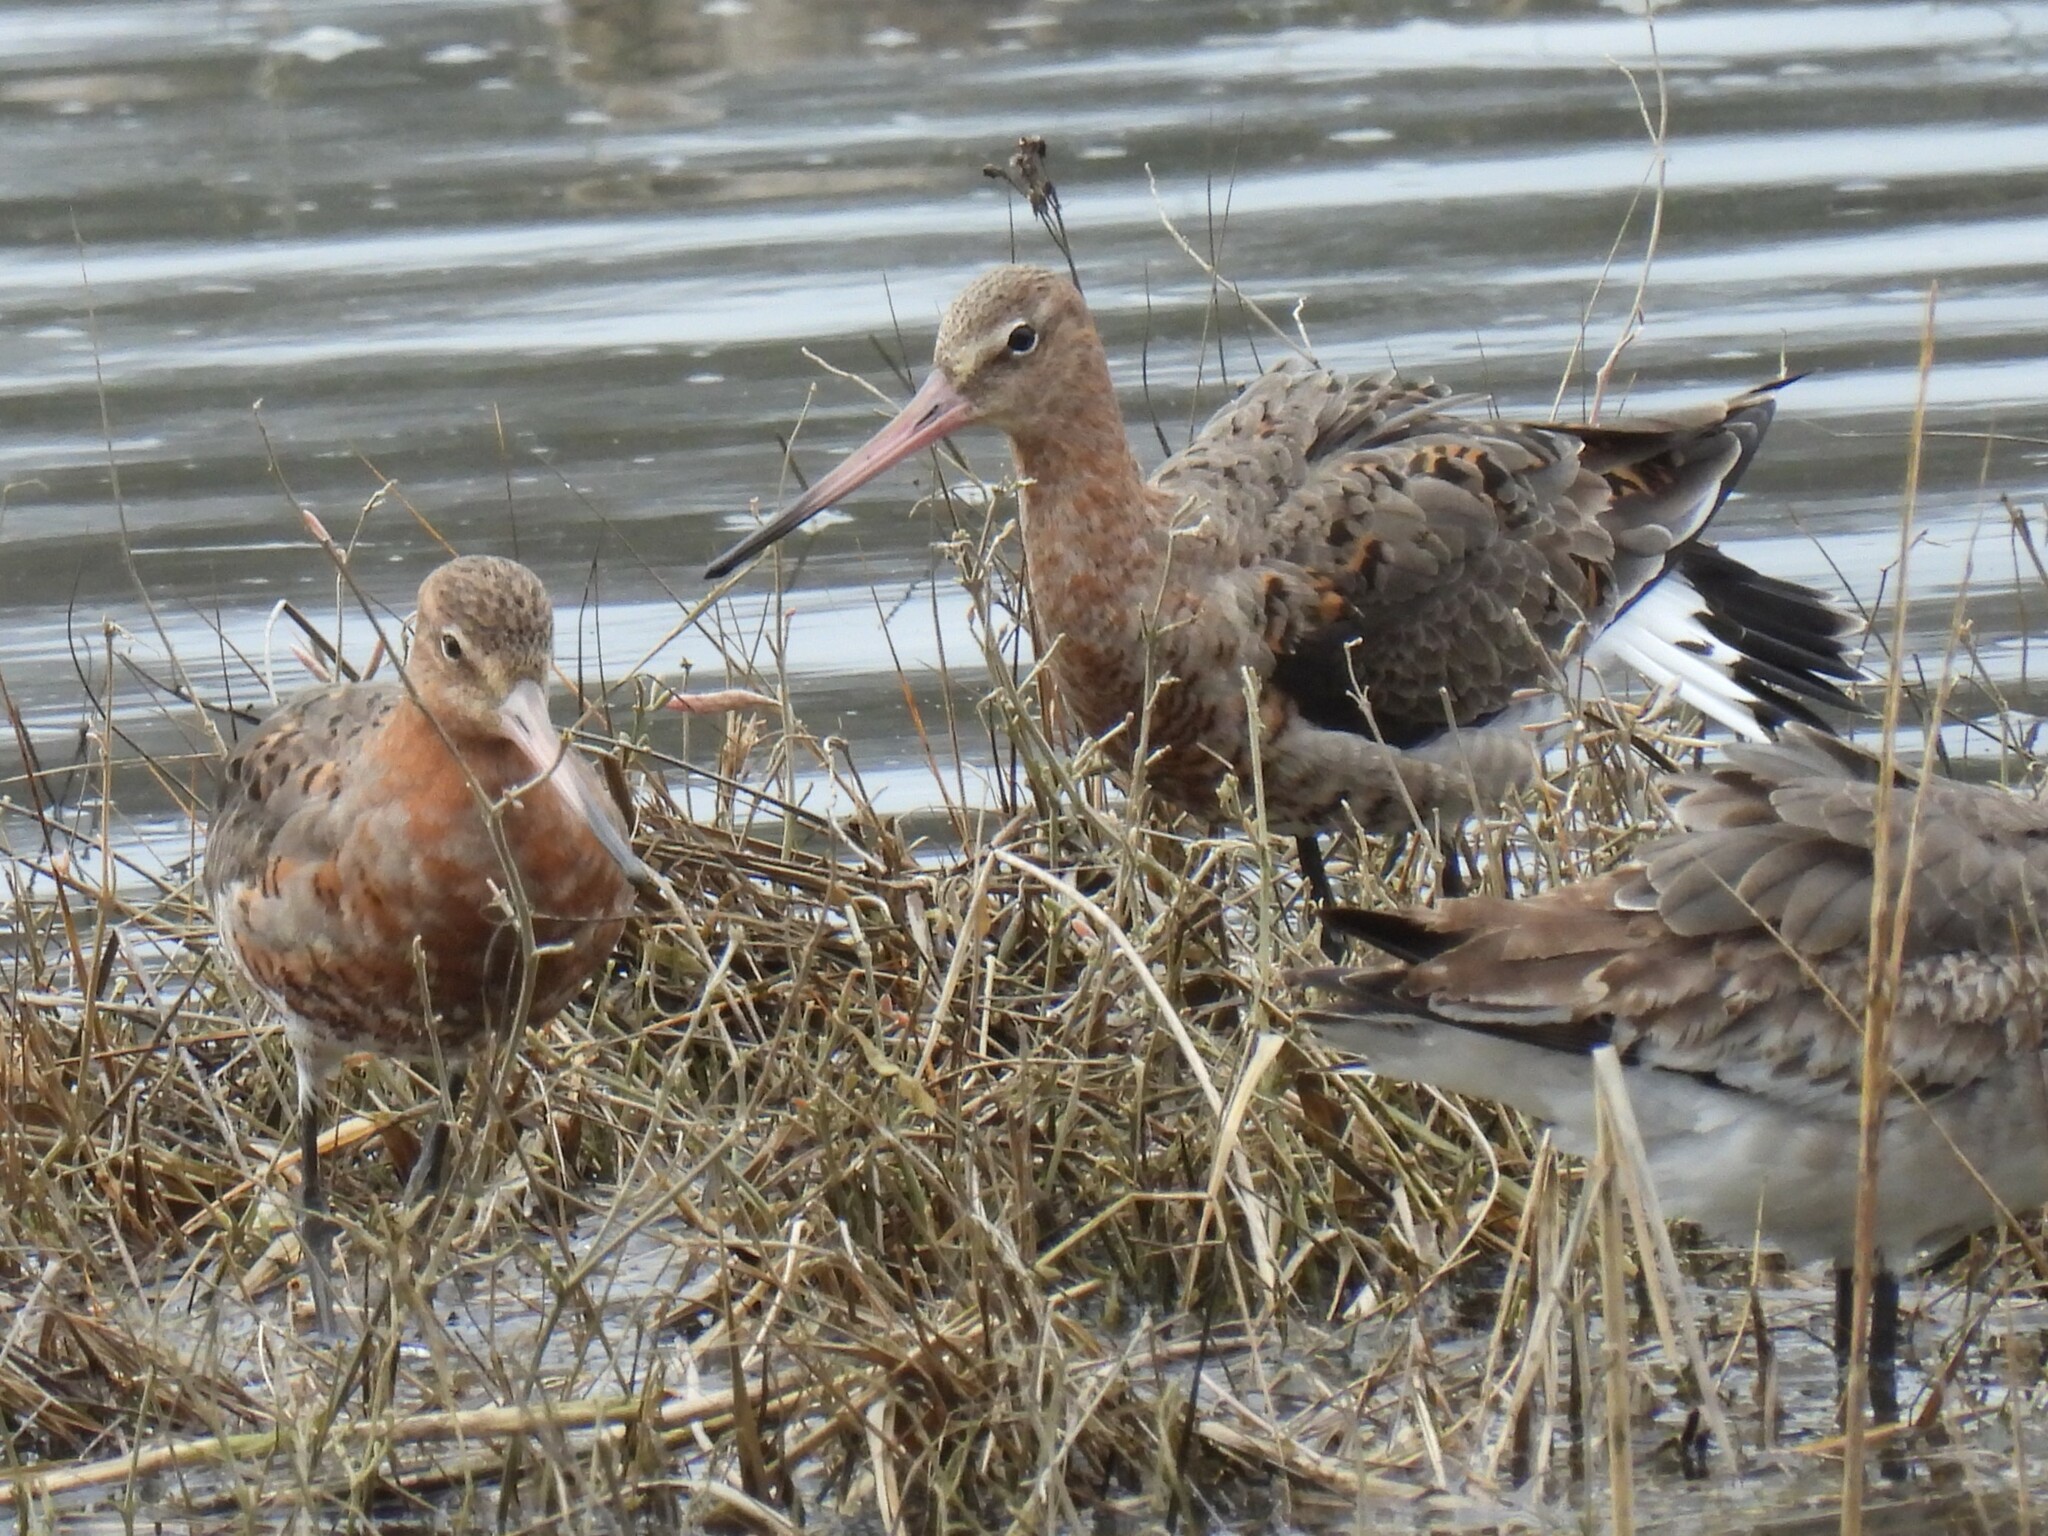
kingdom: Animalia
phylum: Chordata
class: Aves
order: Charadriiformes
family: Scolopacidae
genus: Limosa
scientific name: Limosa limosa
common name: Black-tailed godwit
